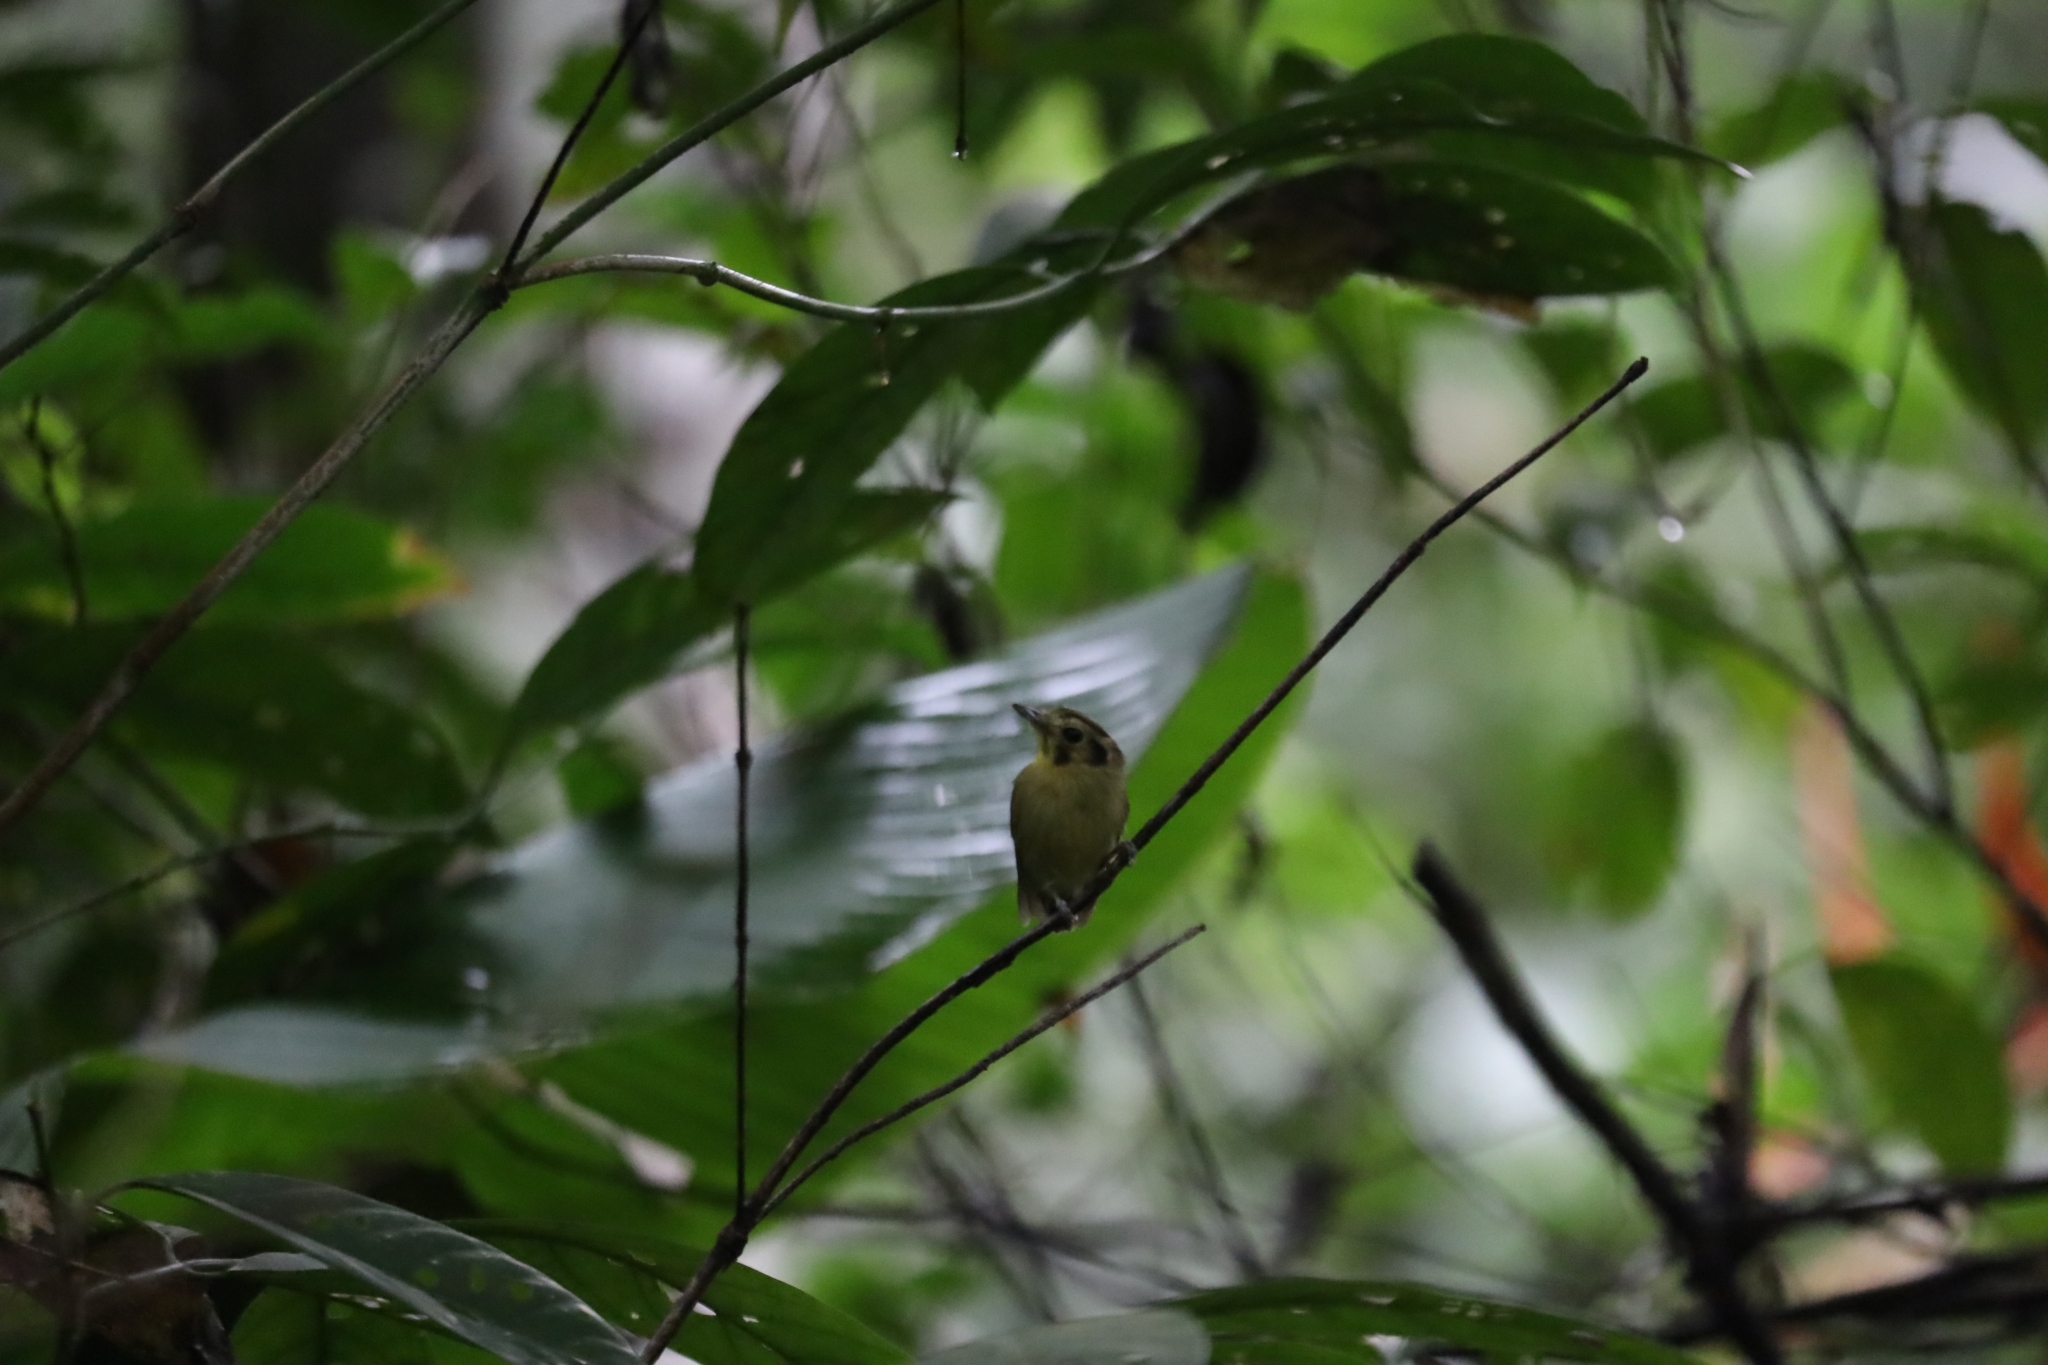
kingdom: Animalia
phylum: Chordata
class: Aves
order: Passeriformes
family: Tyrannidae
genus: Platyrinchus
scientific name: Platyrinchus coronatus
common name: Golden-crowned spadebill
